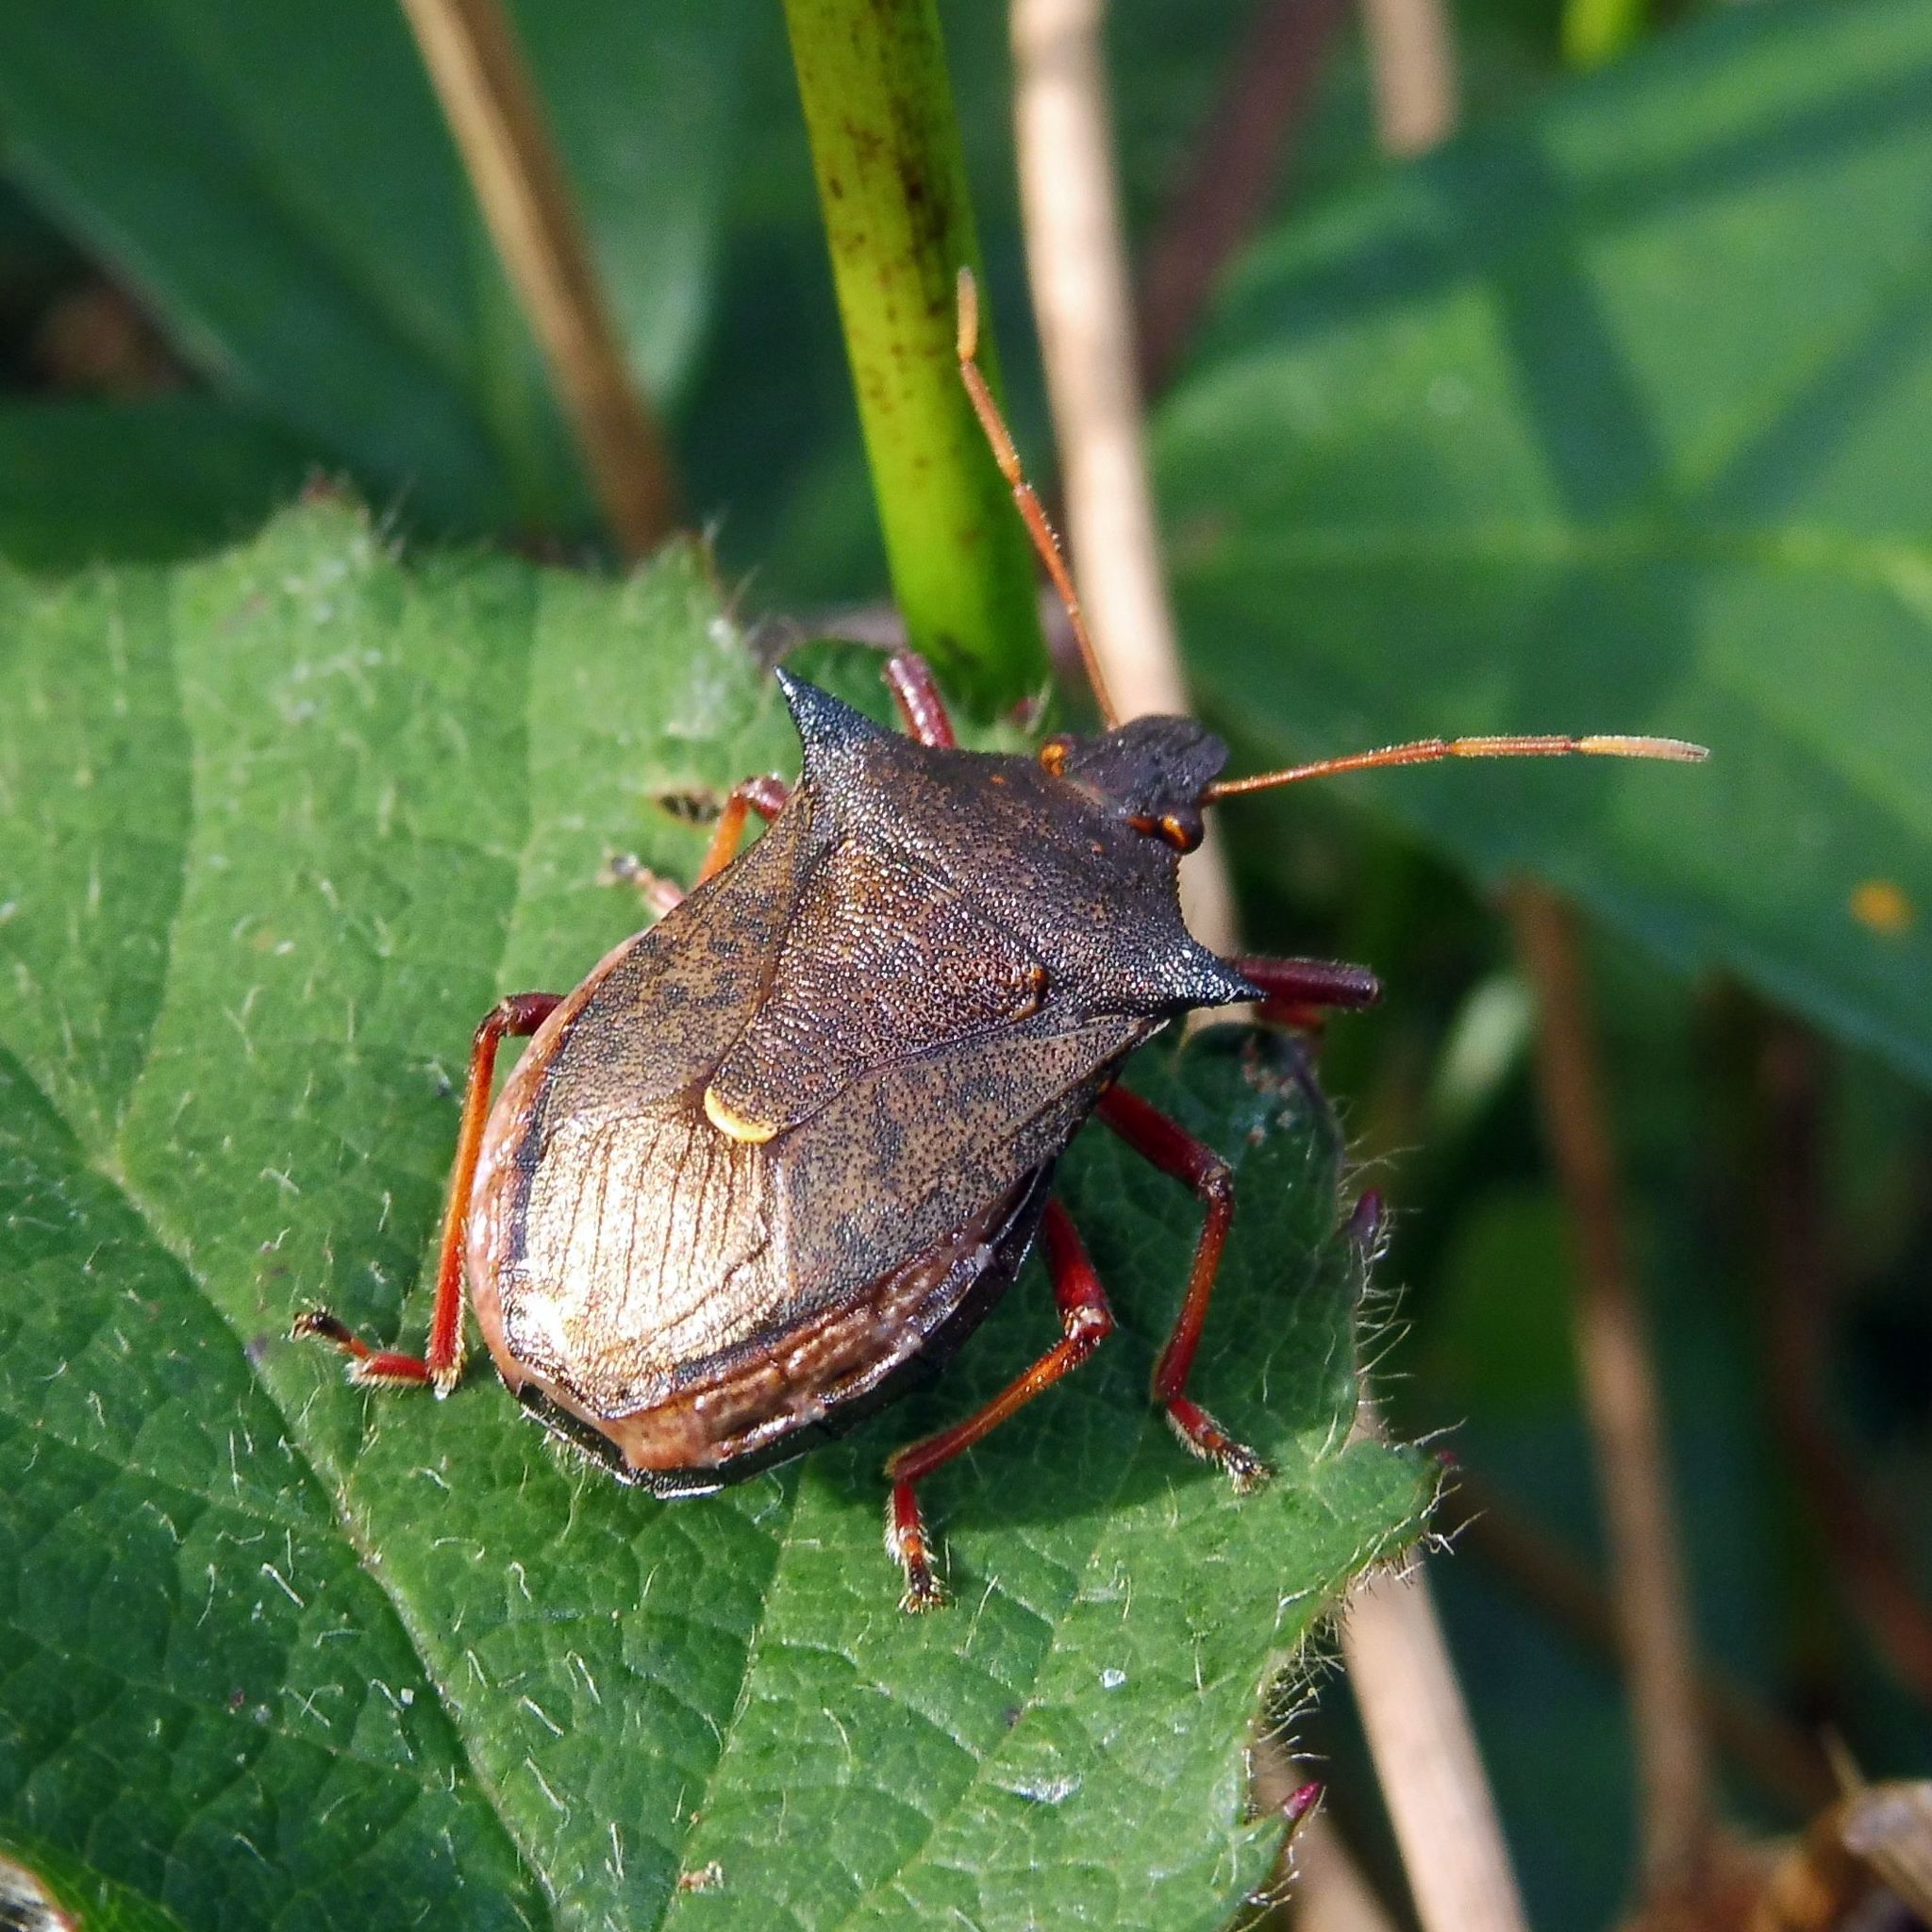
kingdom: Animalia
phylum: Arthropoda
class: Insecta
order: Hemiptera
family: Pentatomidae
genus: Picromerus
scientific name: Picromerus bidens
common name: Spiked shieldbug
